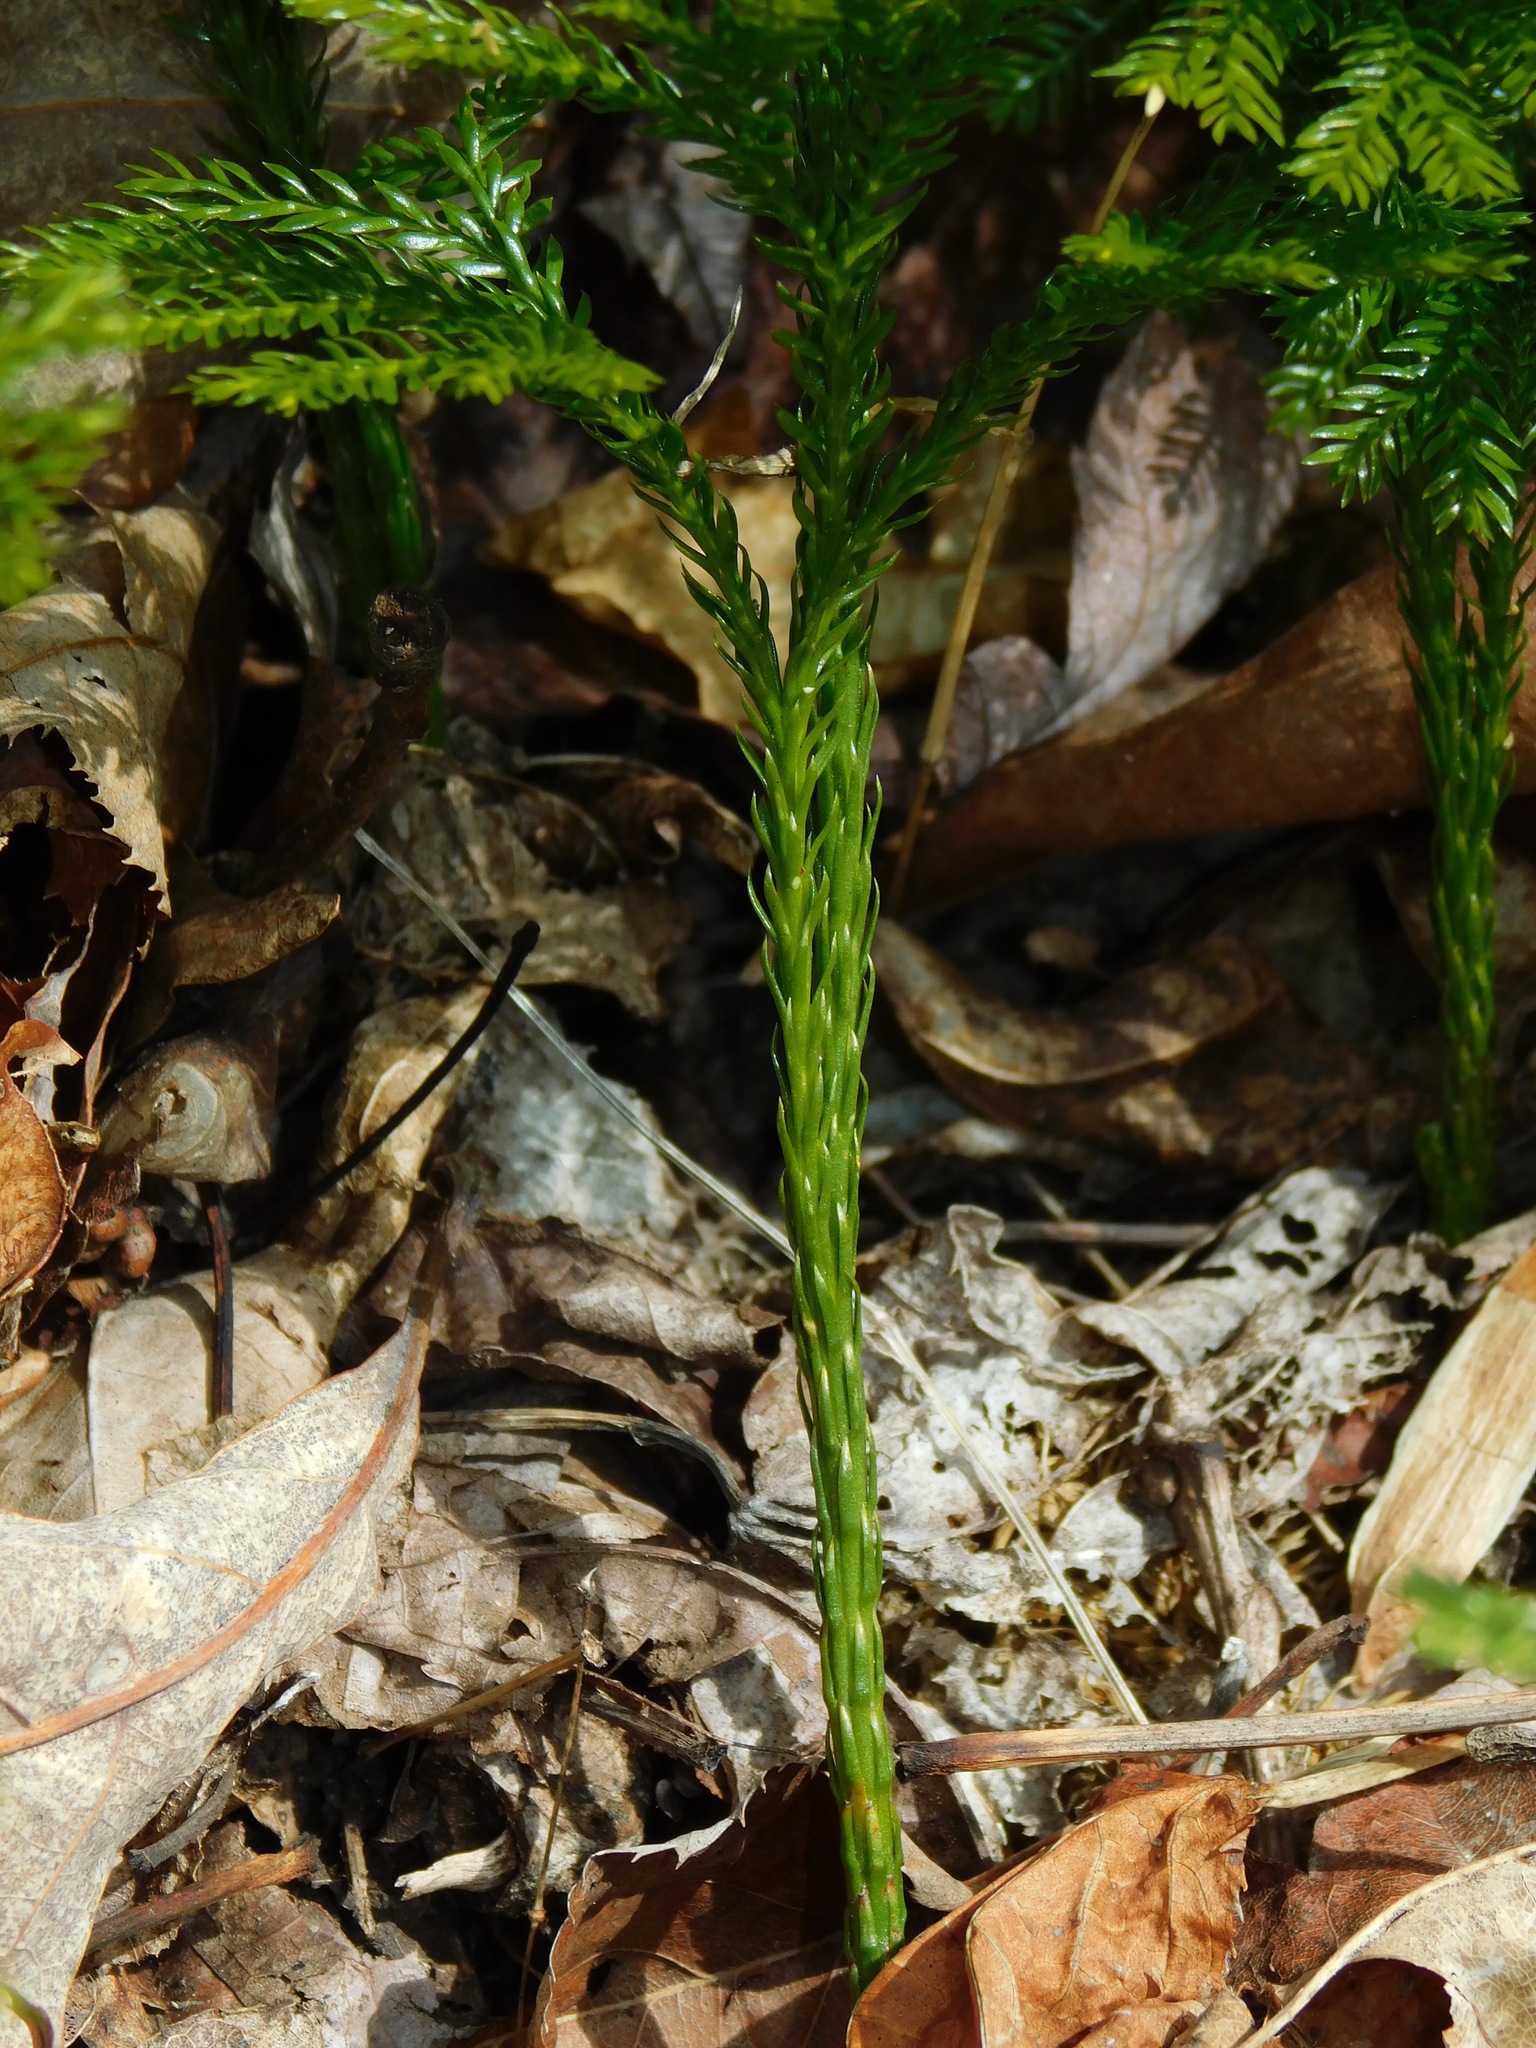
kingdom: Plantae
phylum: Tracheophyta
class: Lycopodiopsida
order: Lycopodiales
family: Lycopodiaceae
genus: Dendrolycopodium
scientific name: Dendrolycopodium obscurum
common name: Common ground-pine
